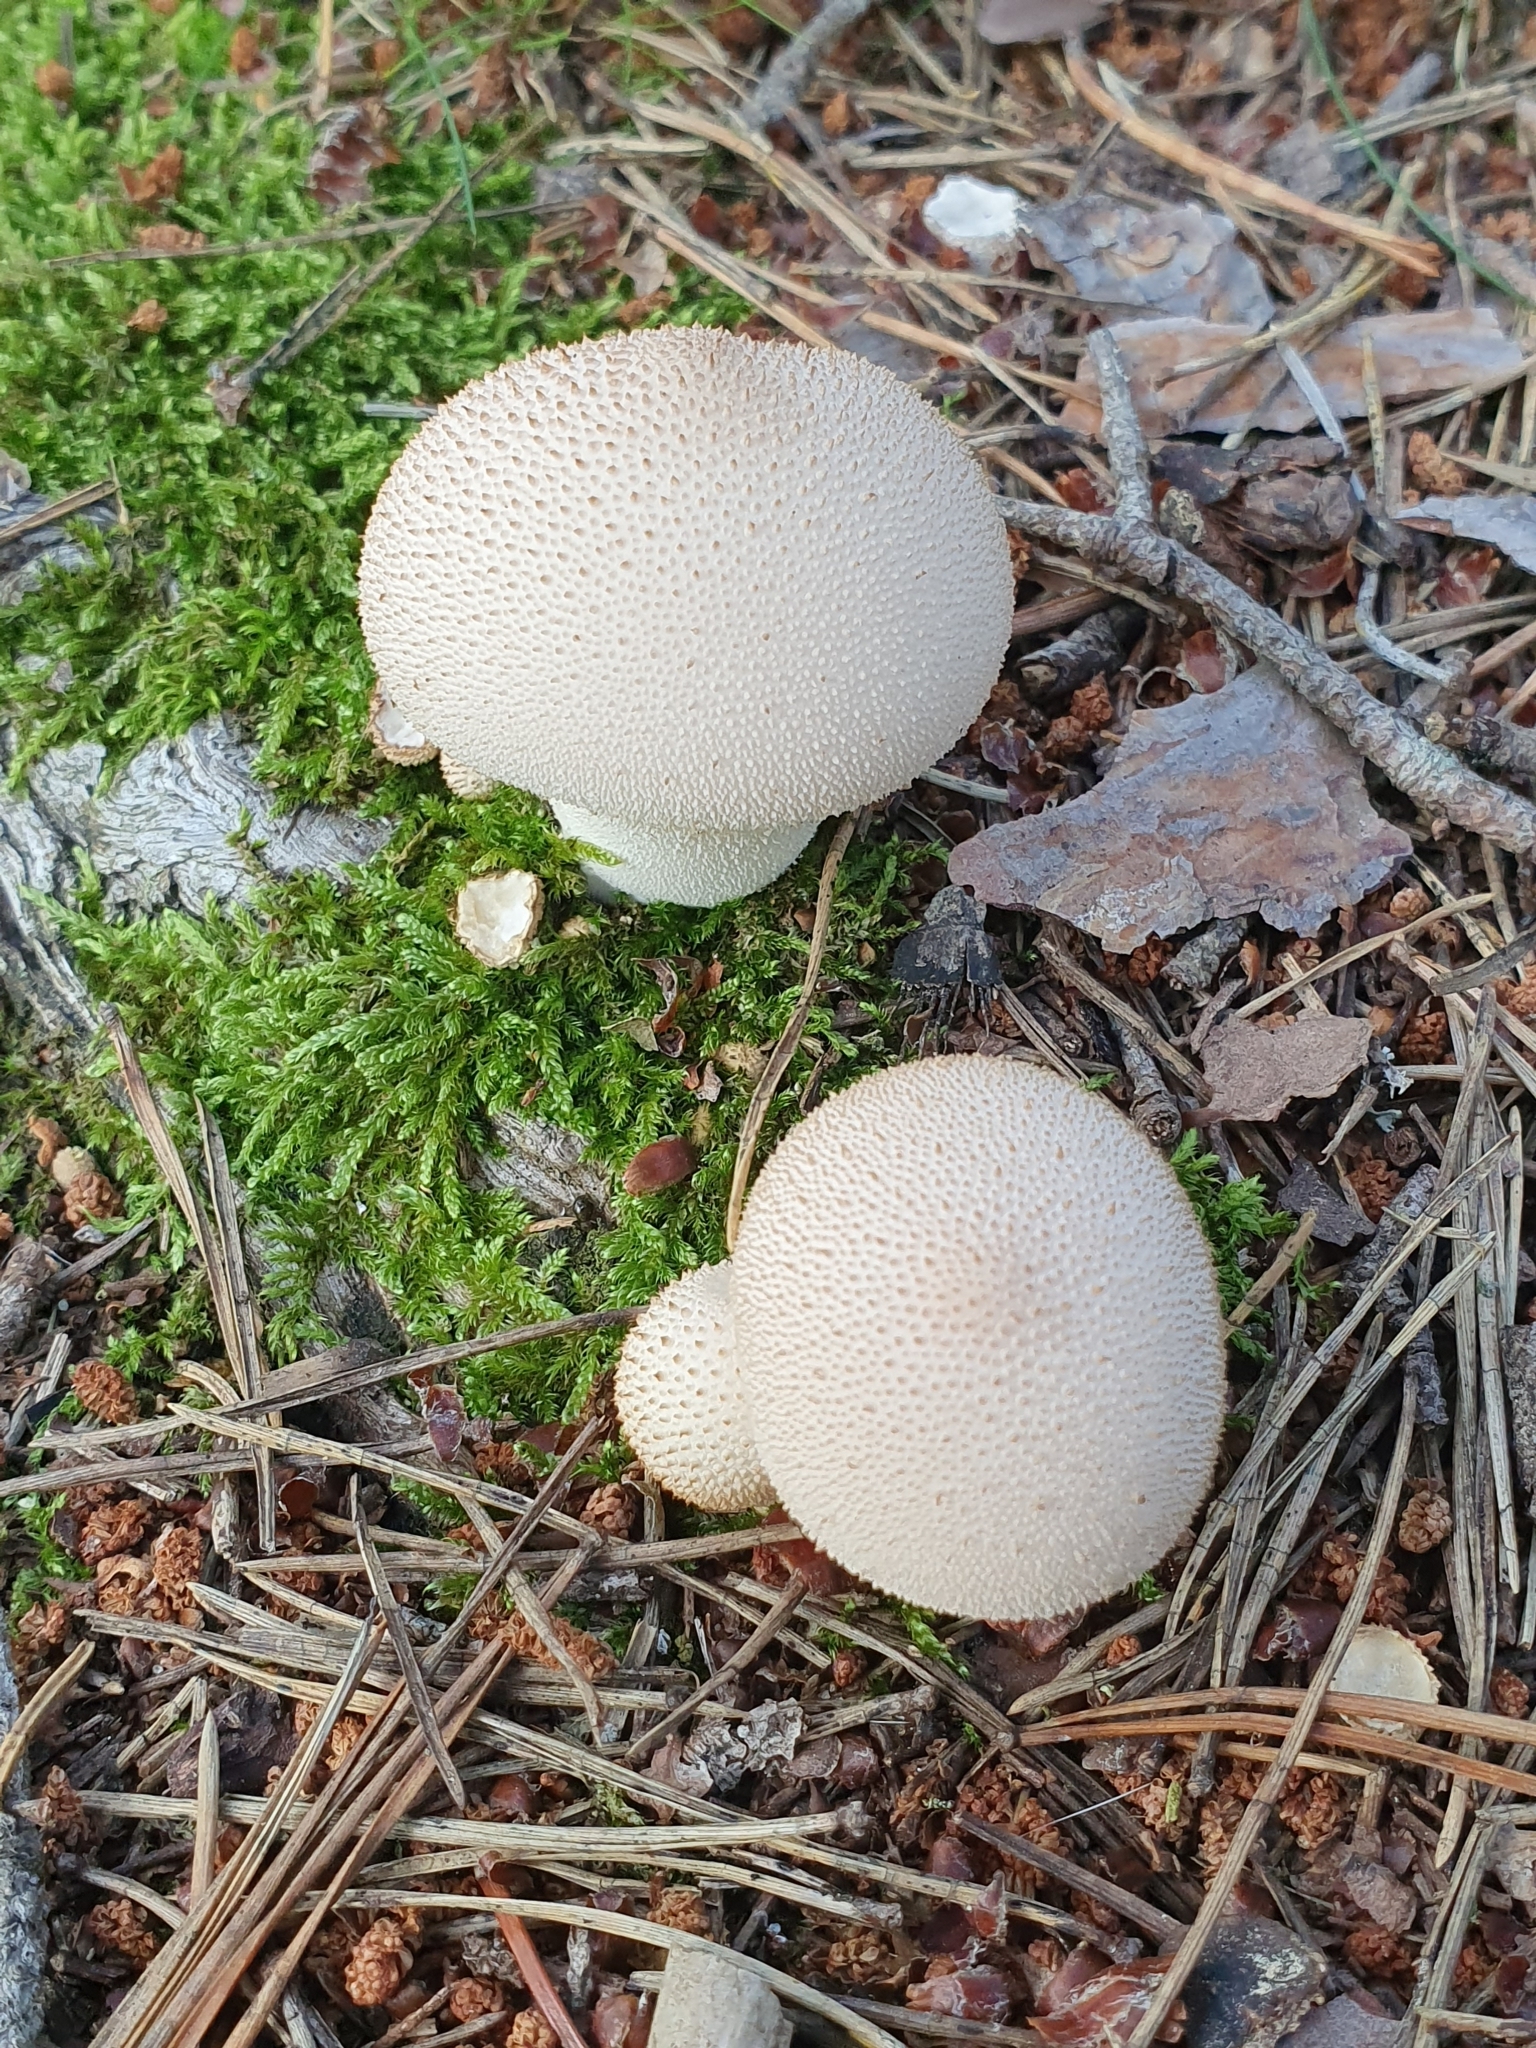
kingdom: Fungi
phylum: Basidiomycota
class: Agaricomycetes
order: Agaricales
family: Lycoperdaceae
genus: Lycoperdon
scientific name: Lycoperdon perlatum
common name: Common puffball
